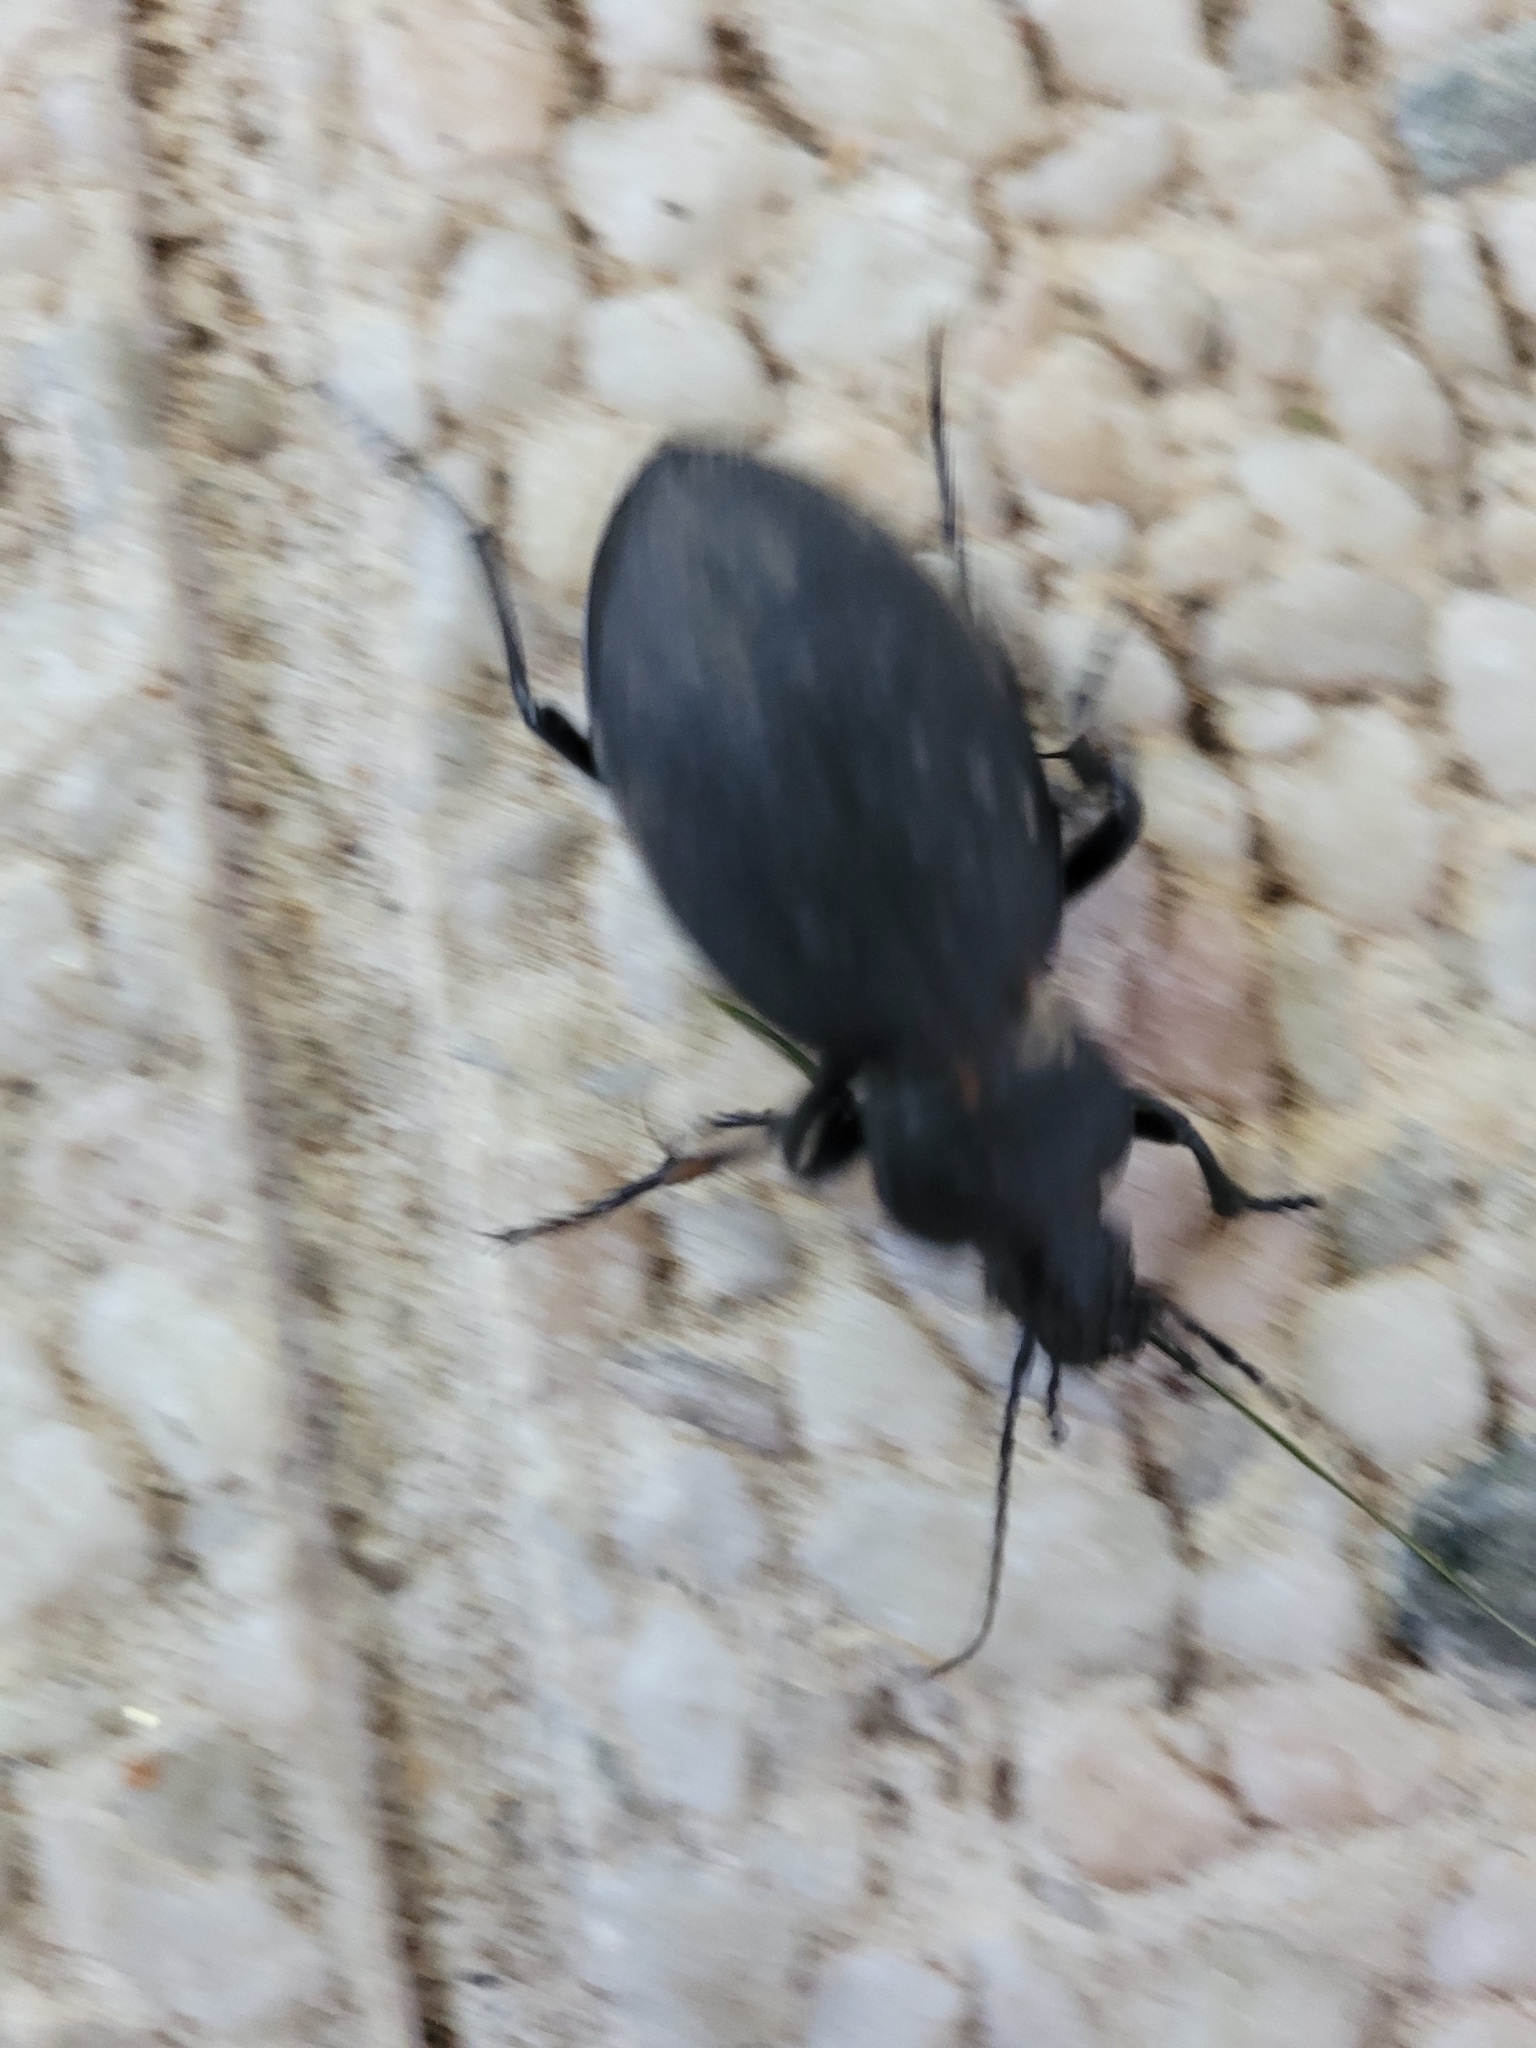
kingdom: Animalia
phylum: Arthropoda
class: Insecta
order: Coleoptera
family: Carabidae
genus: Carabus
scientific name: Carabus coriaceus
